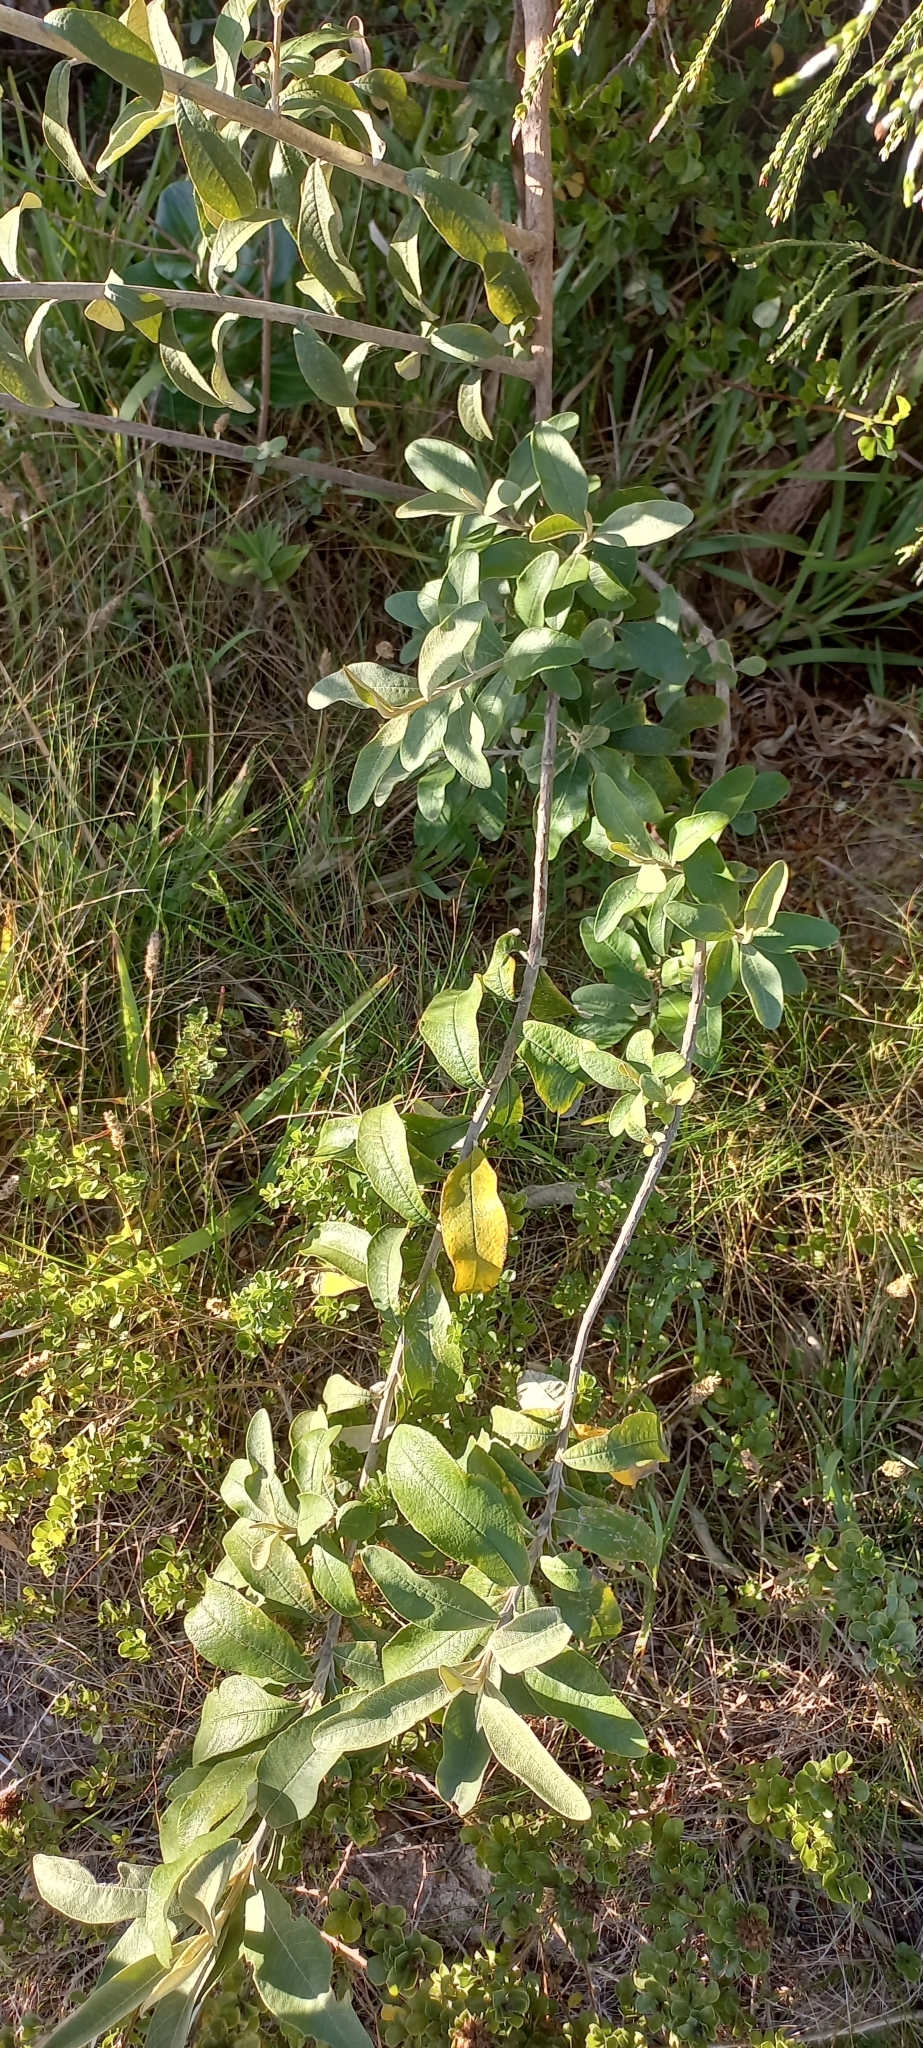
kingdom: Plantae
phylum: Tracheophyta
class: Magnoliopsida
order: Asterales
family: Asteraceae
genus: Tarchonanthus
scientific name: Tarchonanthus littoralis
